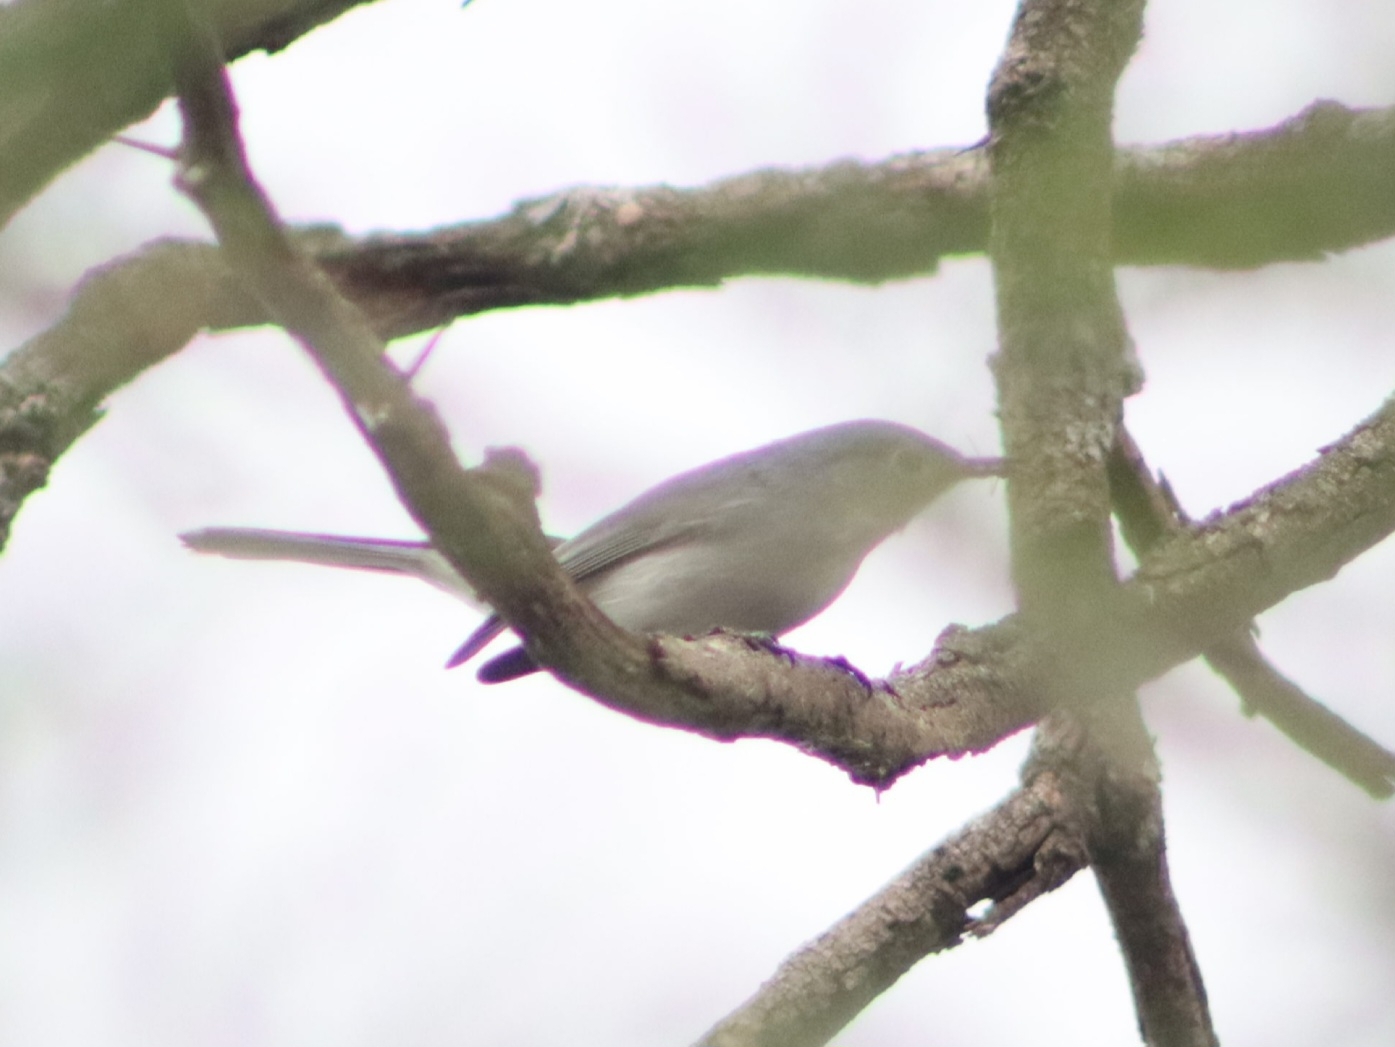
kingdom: Animalia
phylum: Chordata
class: Aves
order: Passeriformes
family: Polioptilidae
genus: Polioptila
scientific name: Polioptila caerulea
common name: Blue-gray gnatcatcher
